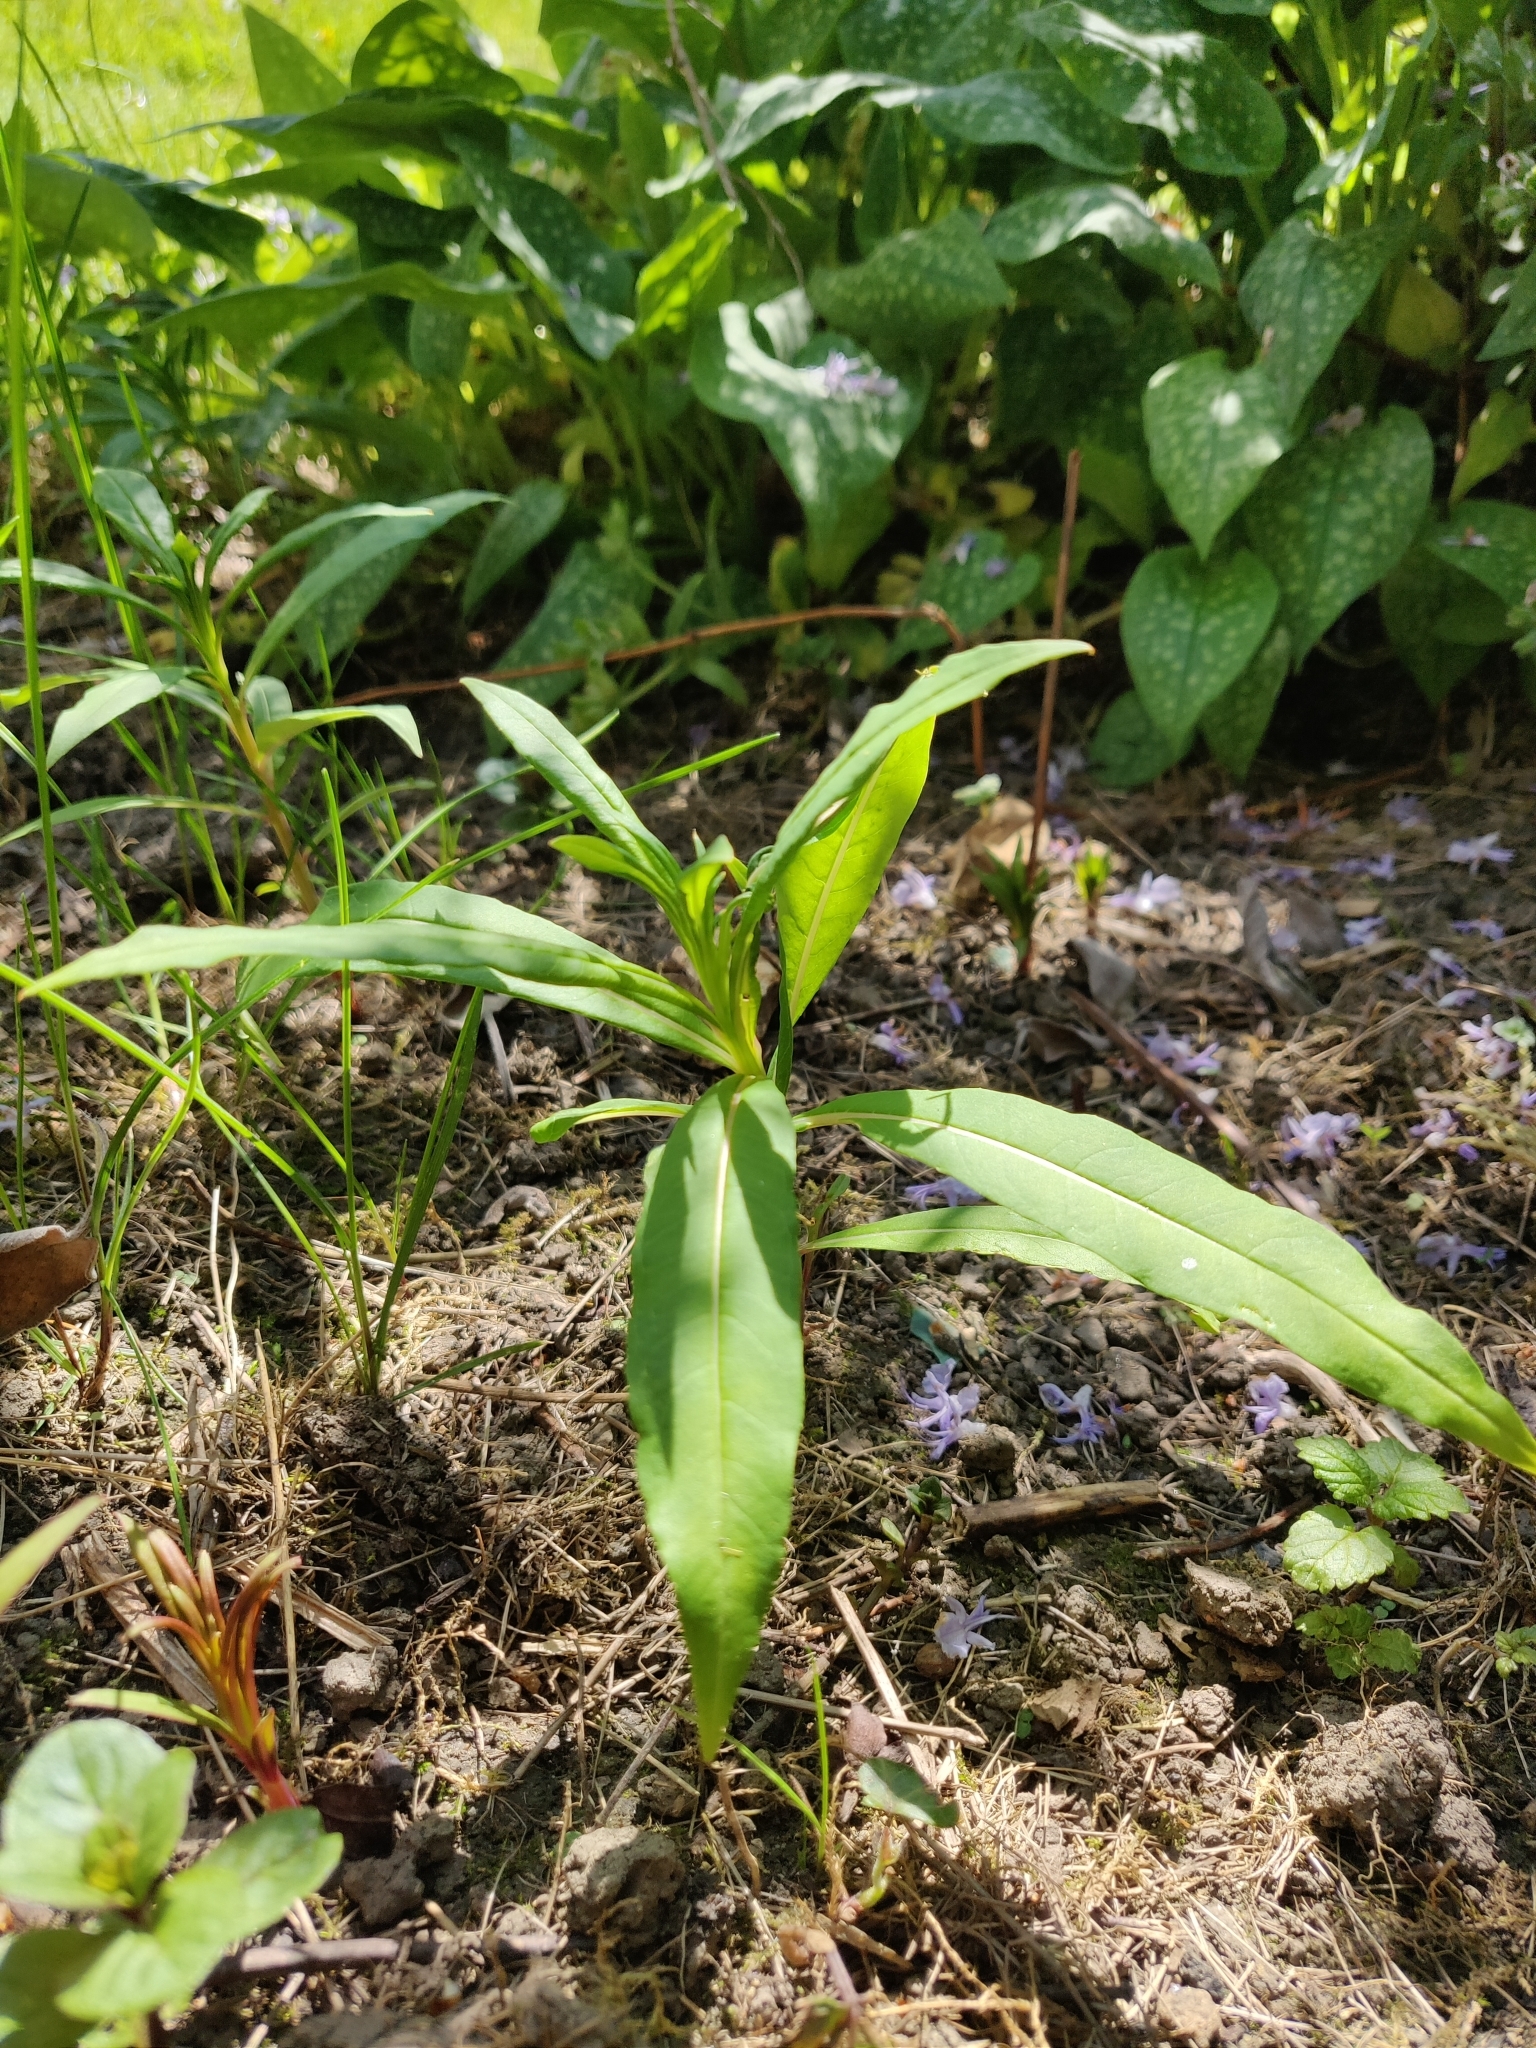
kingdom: Plantae
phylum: Tracheophyta
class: Magnoliopsida
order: Myrtales
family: Onagraceae
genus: Chamaenerion
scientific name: Chamaenerion angustifolium
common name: Fireweed
